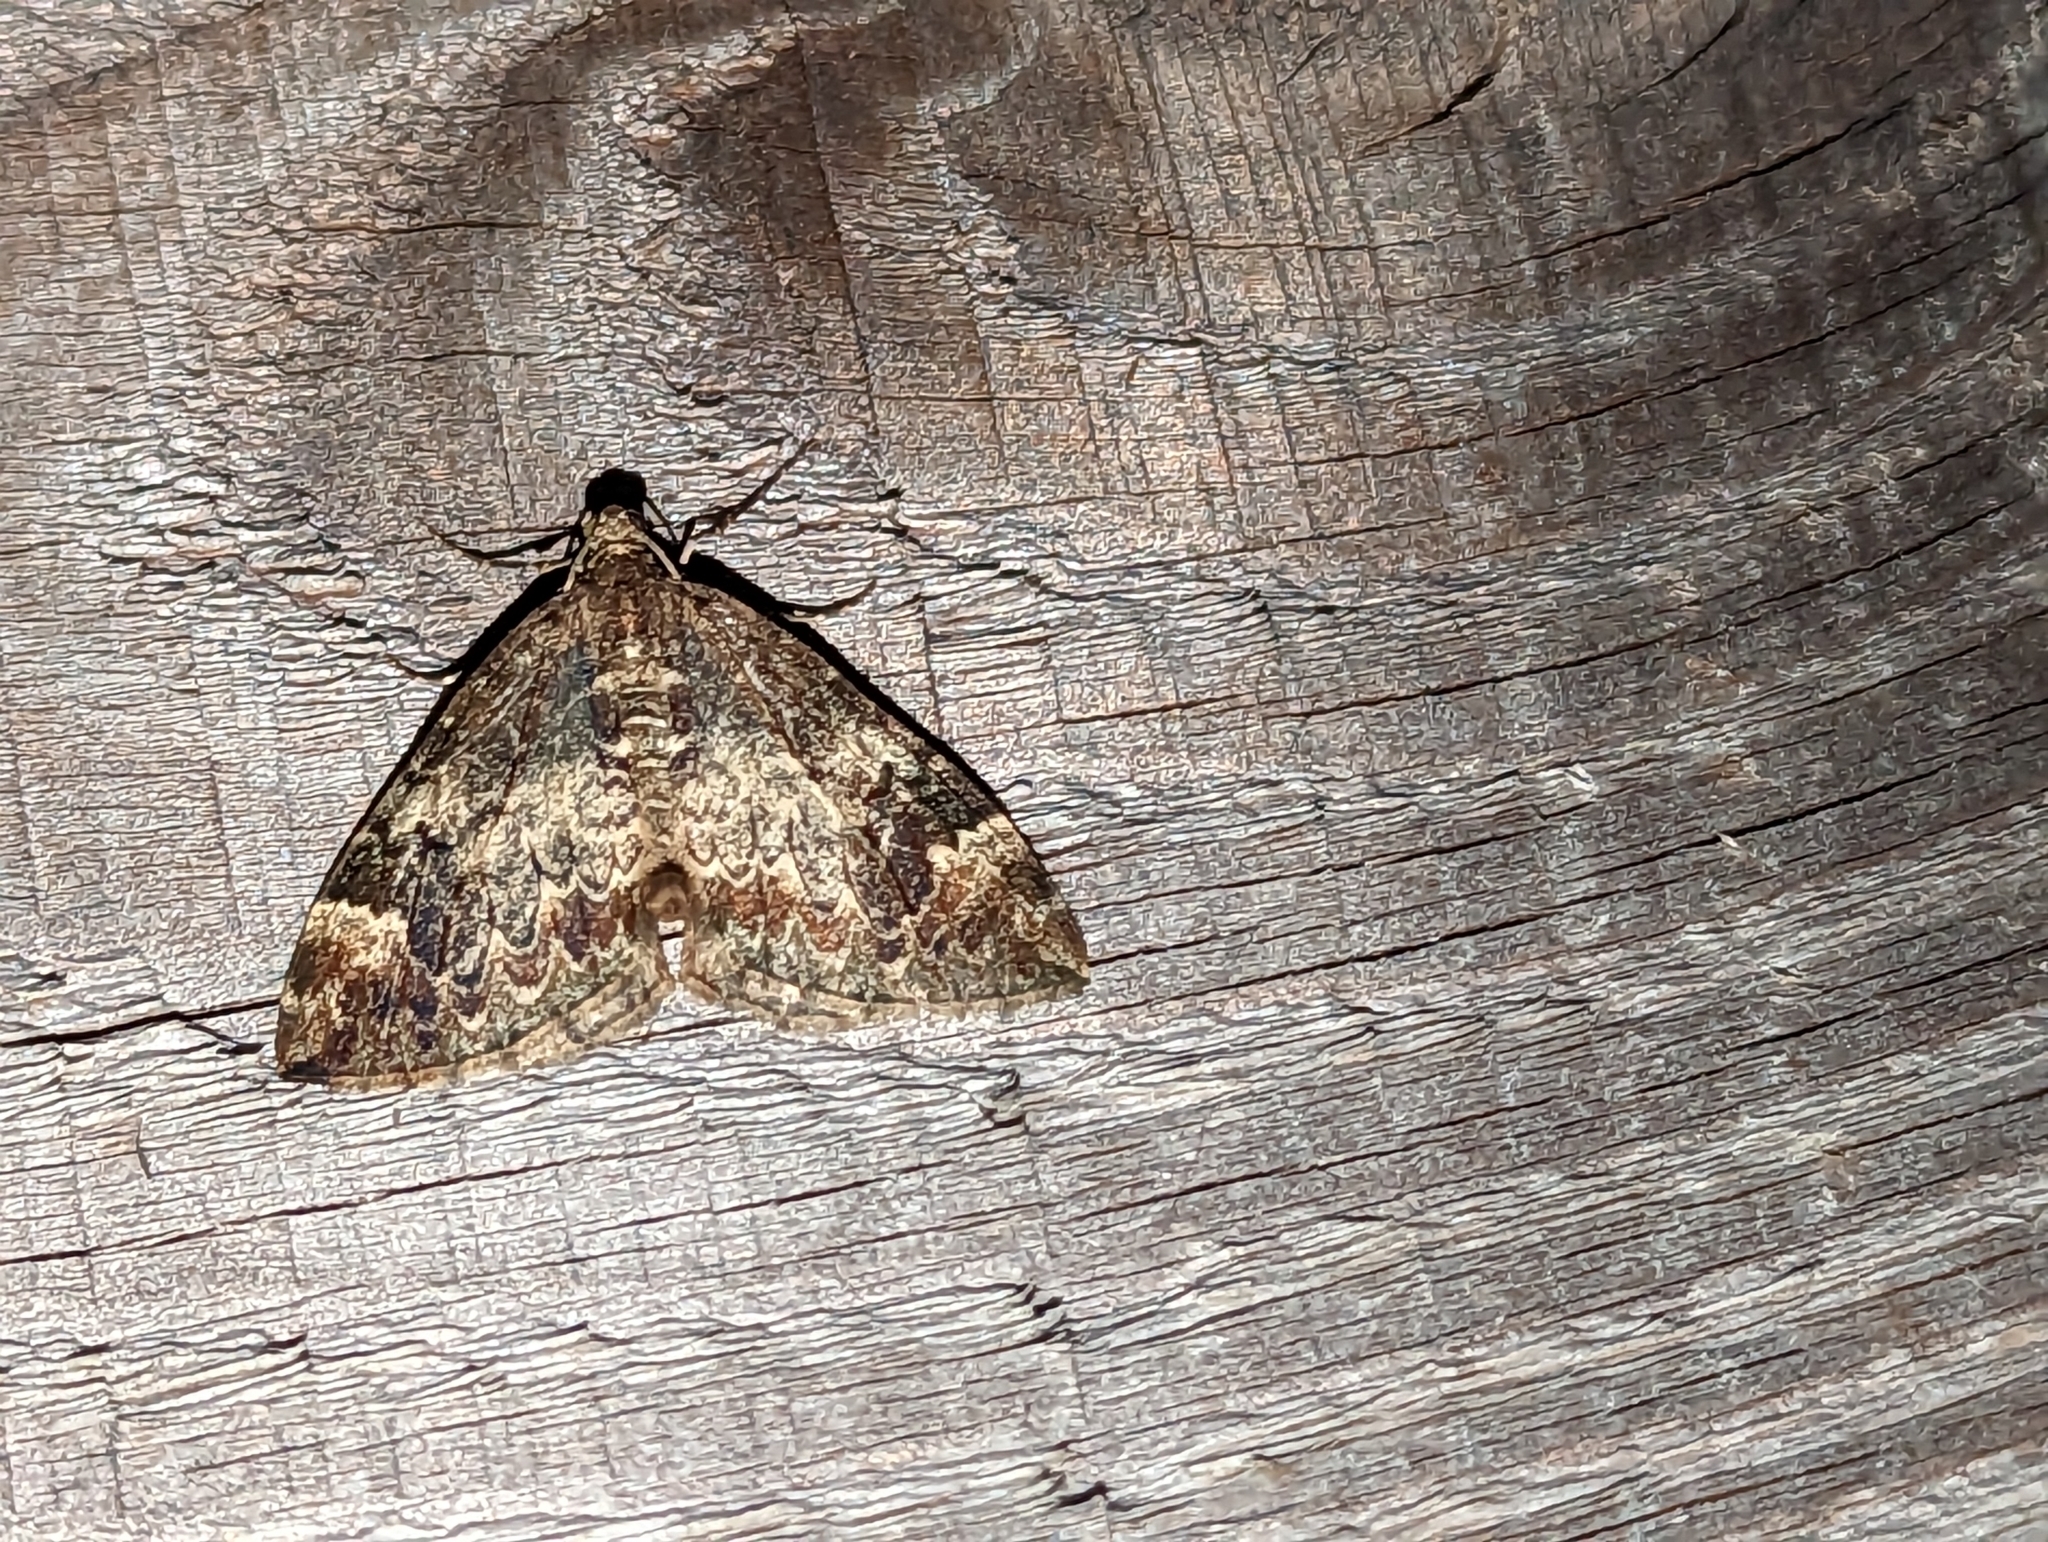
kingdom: Animalia
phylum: Arthropoda
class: Insecta
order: Lepidoptera
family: Geometridae
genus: Dysstroma
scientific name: Dysstroma truncata
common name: Common marbled carpet
